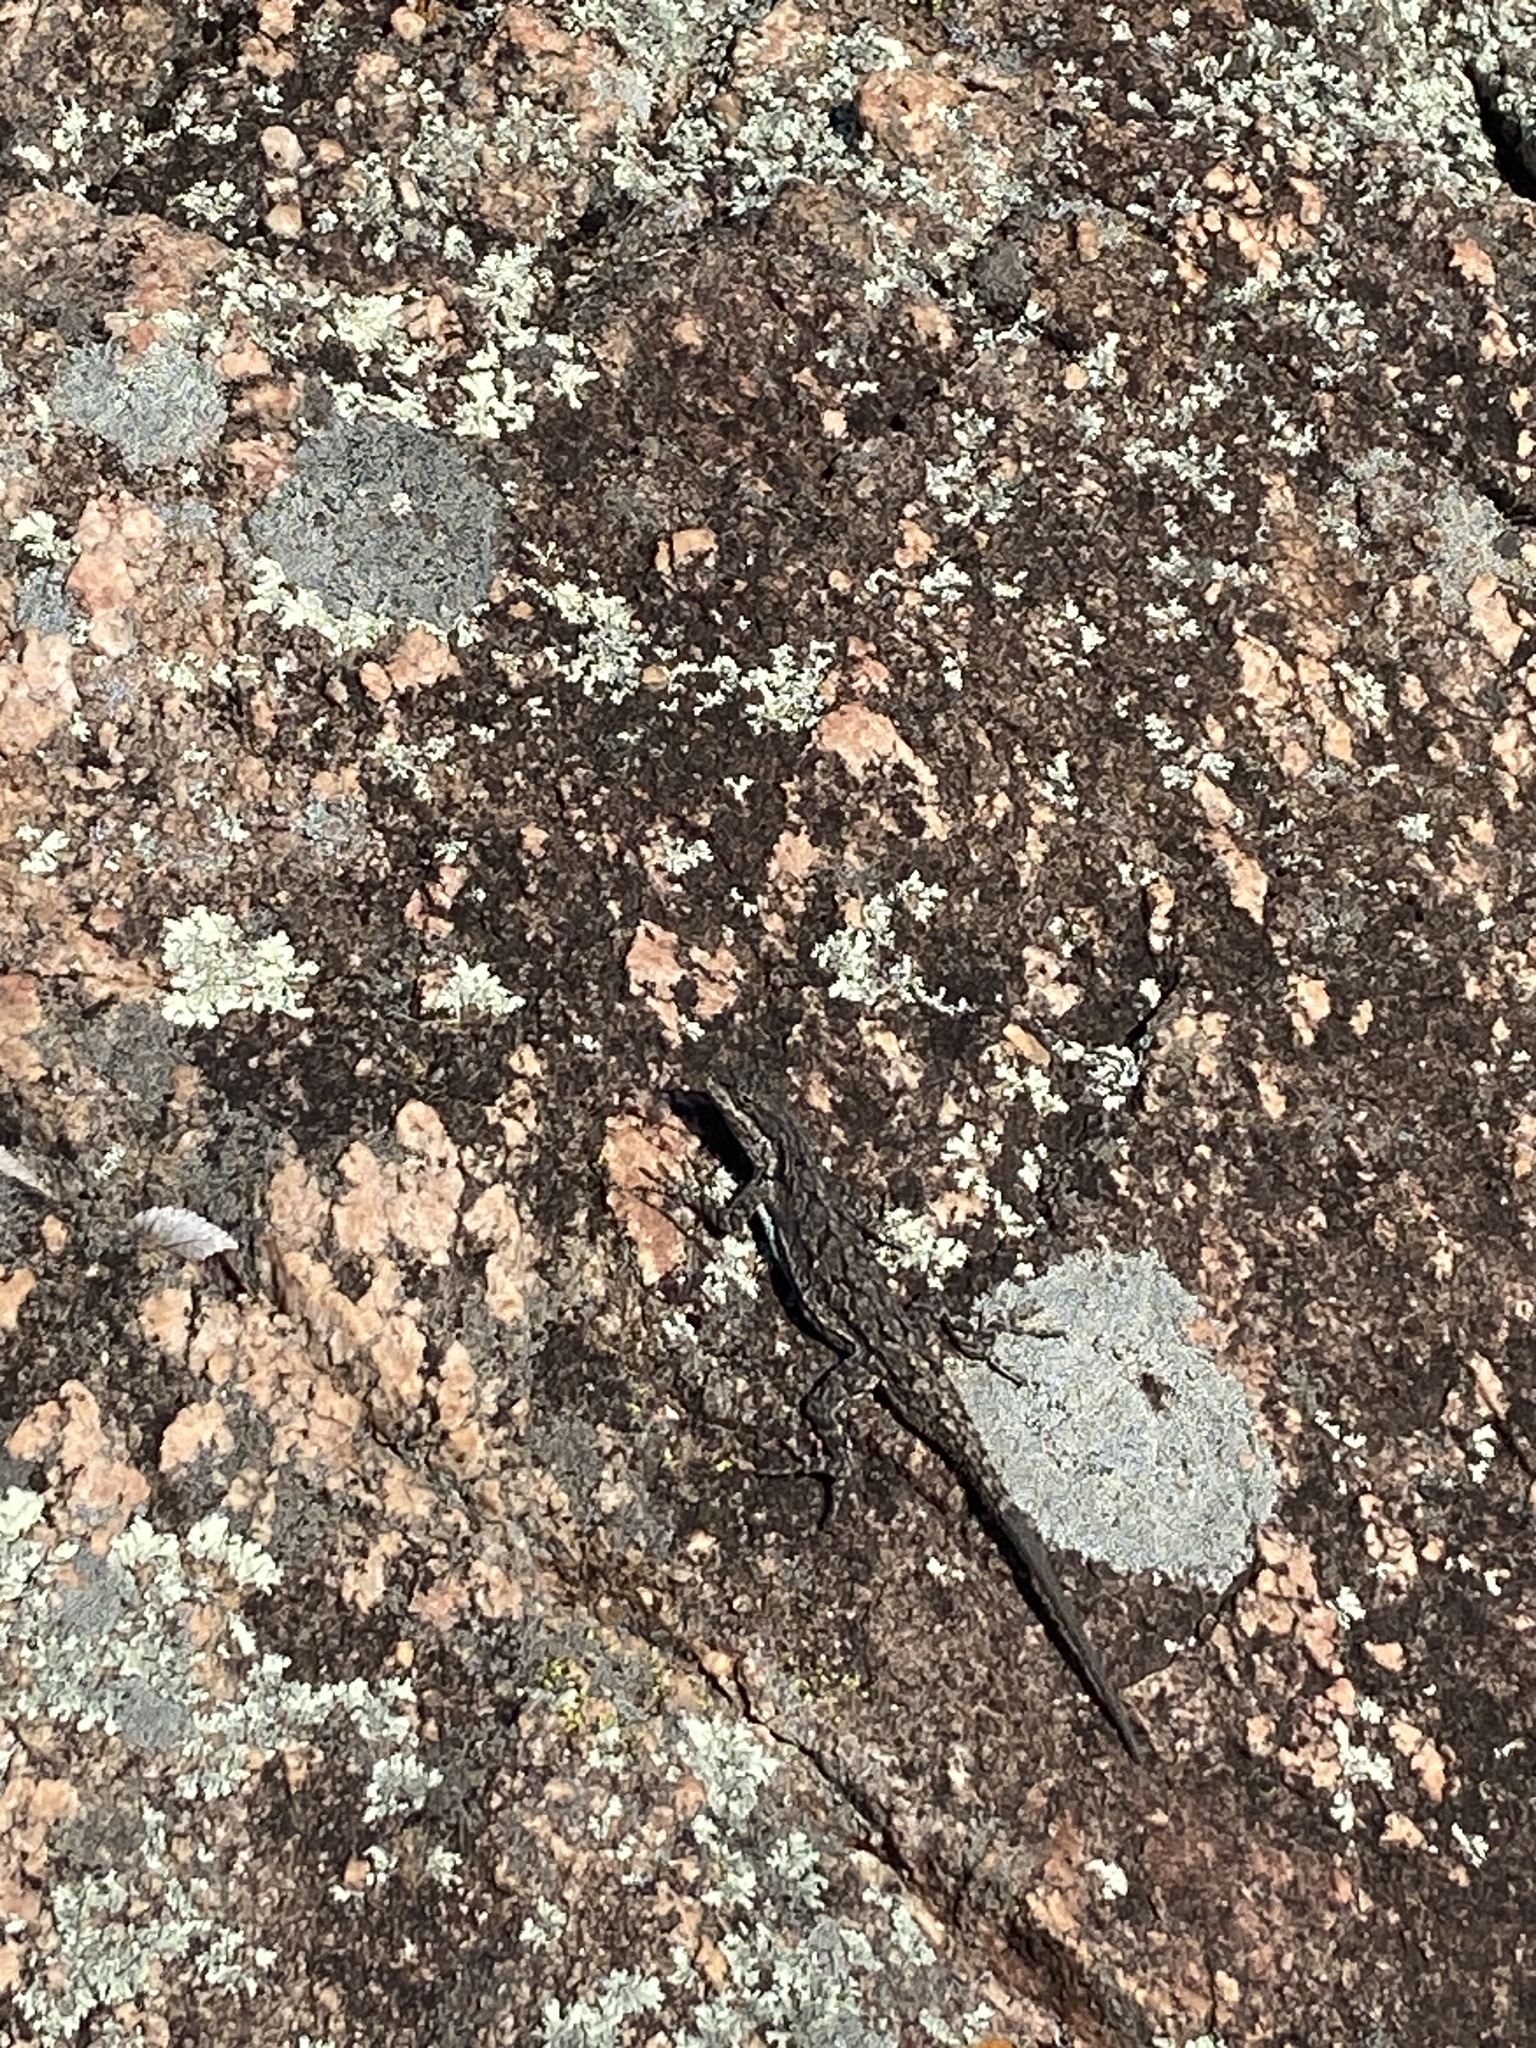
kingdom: Animalia
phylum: Chordata
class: Squamata
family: Phrynosomatidae
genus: Urosaurus
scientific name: Urosaurus ornatus
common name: Ornate tree lizard
